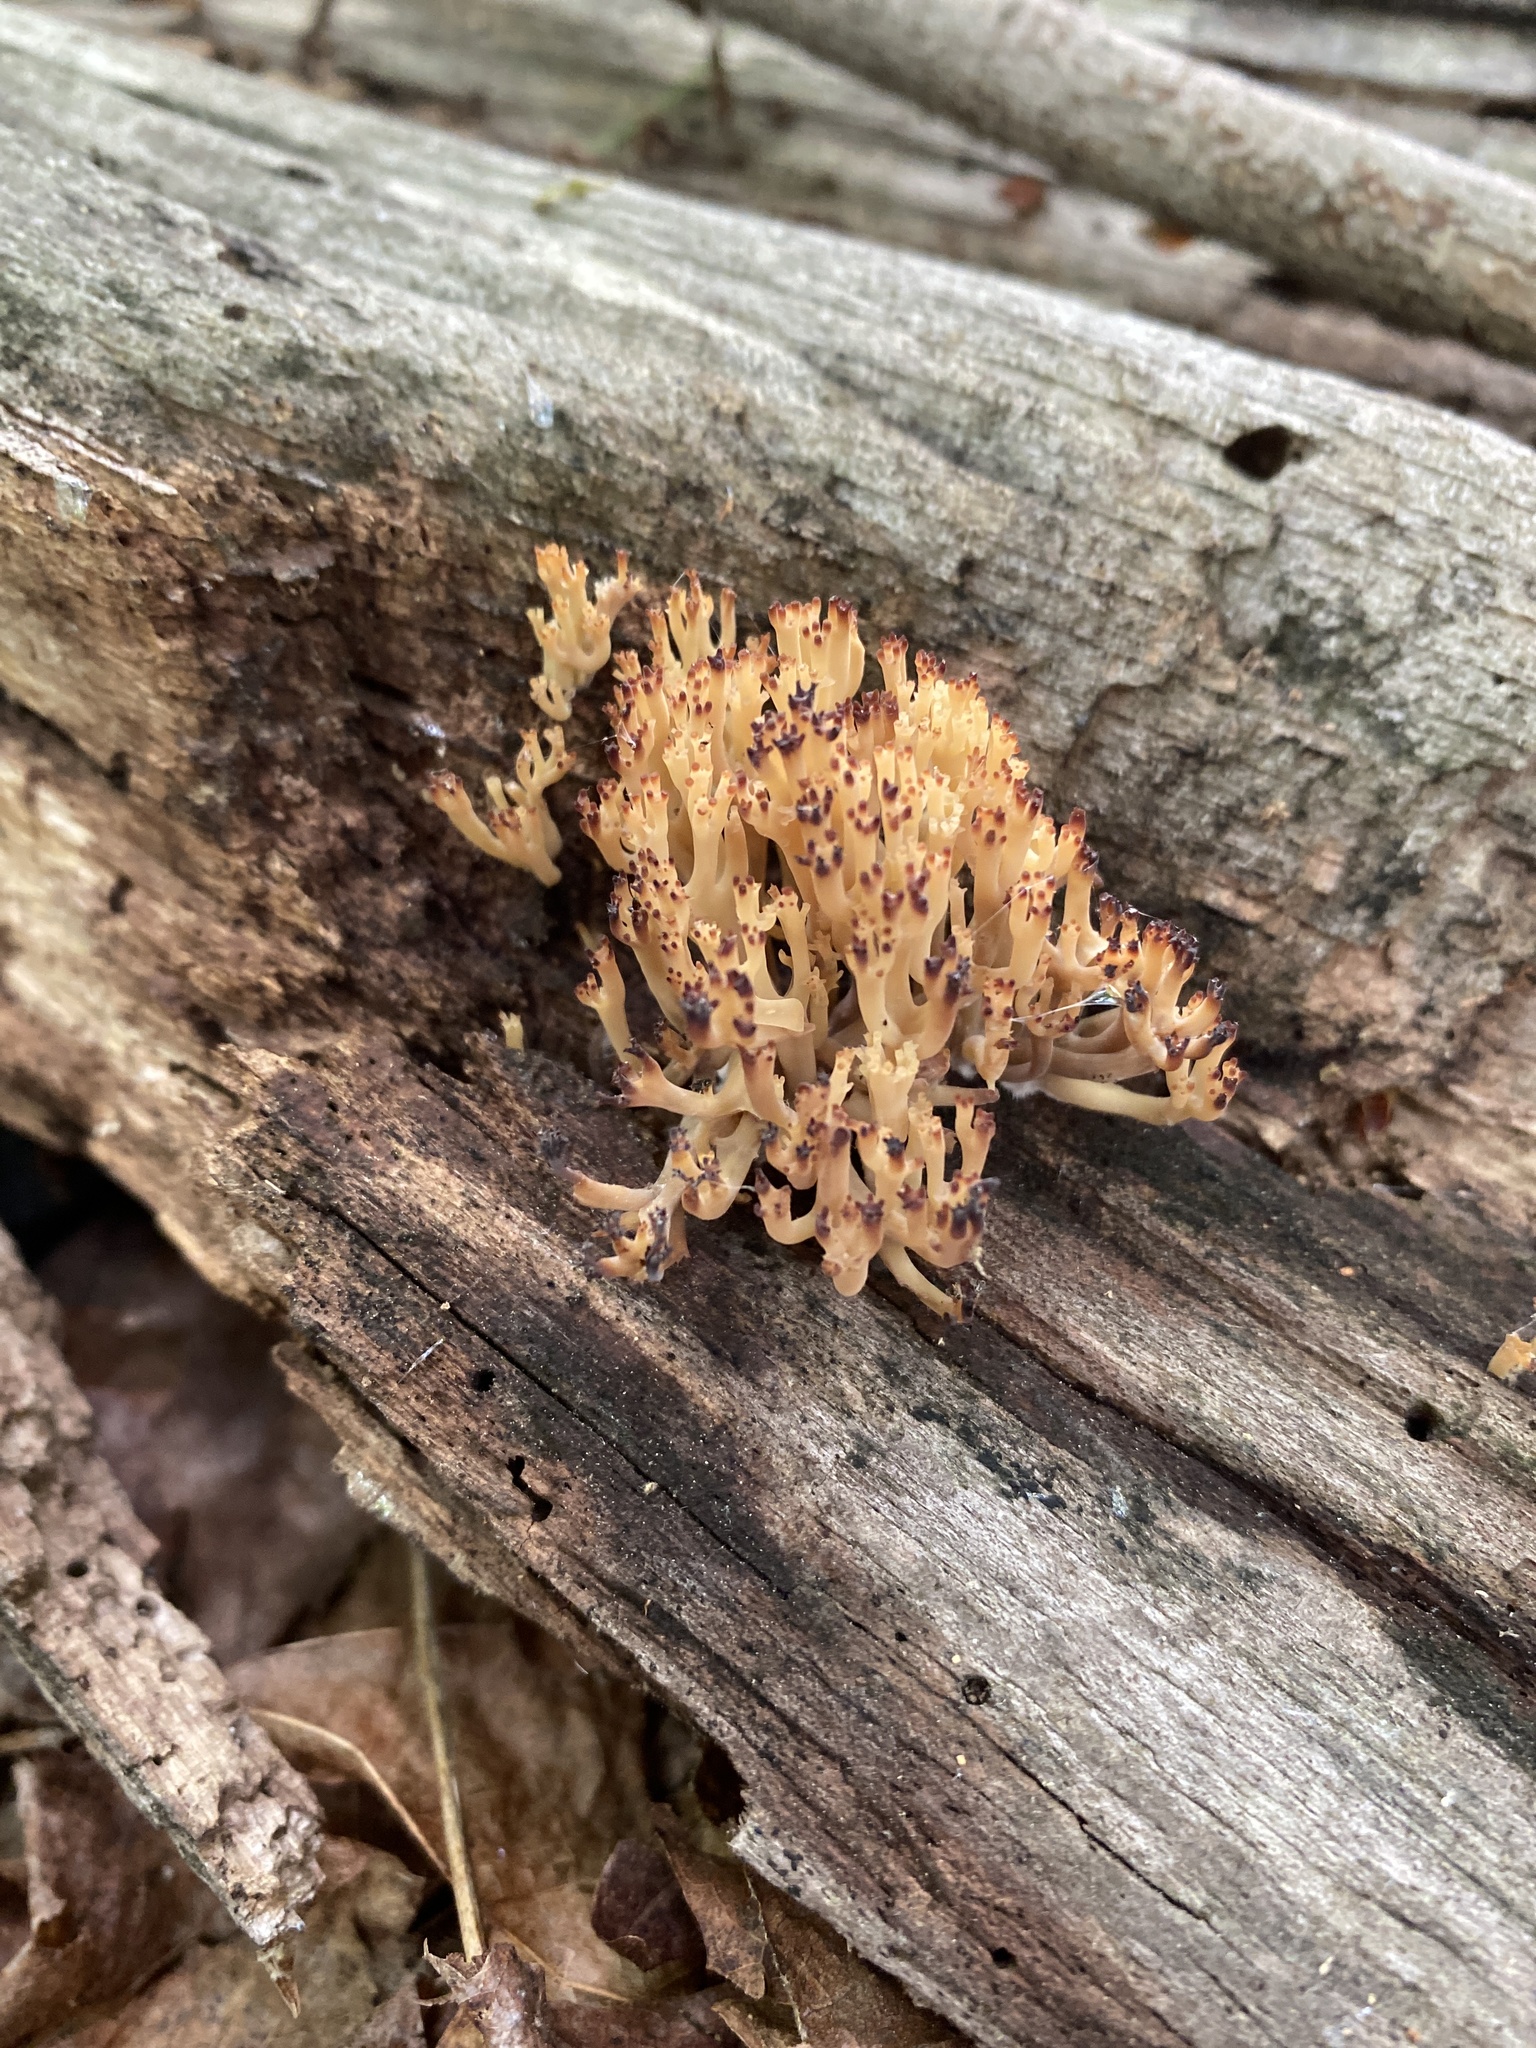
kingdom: Fungi
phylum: Basidiomycota
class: Agaricomycetes
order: Russulales
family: Auriscalpiaceae
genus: Artomyces
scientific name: Artomyces pyxidatus
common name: Crown-tipped coral fungus
